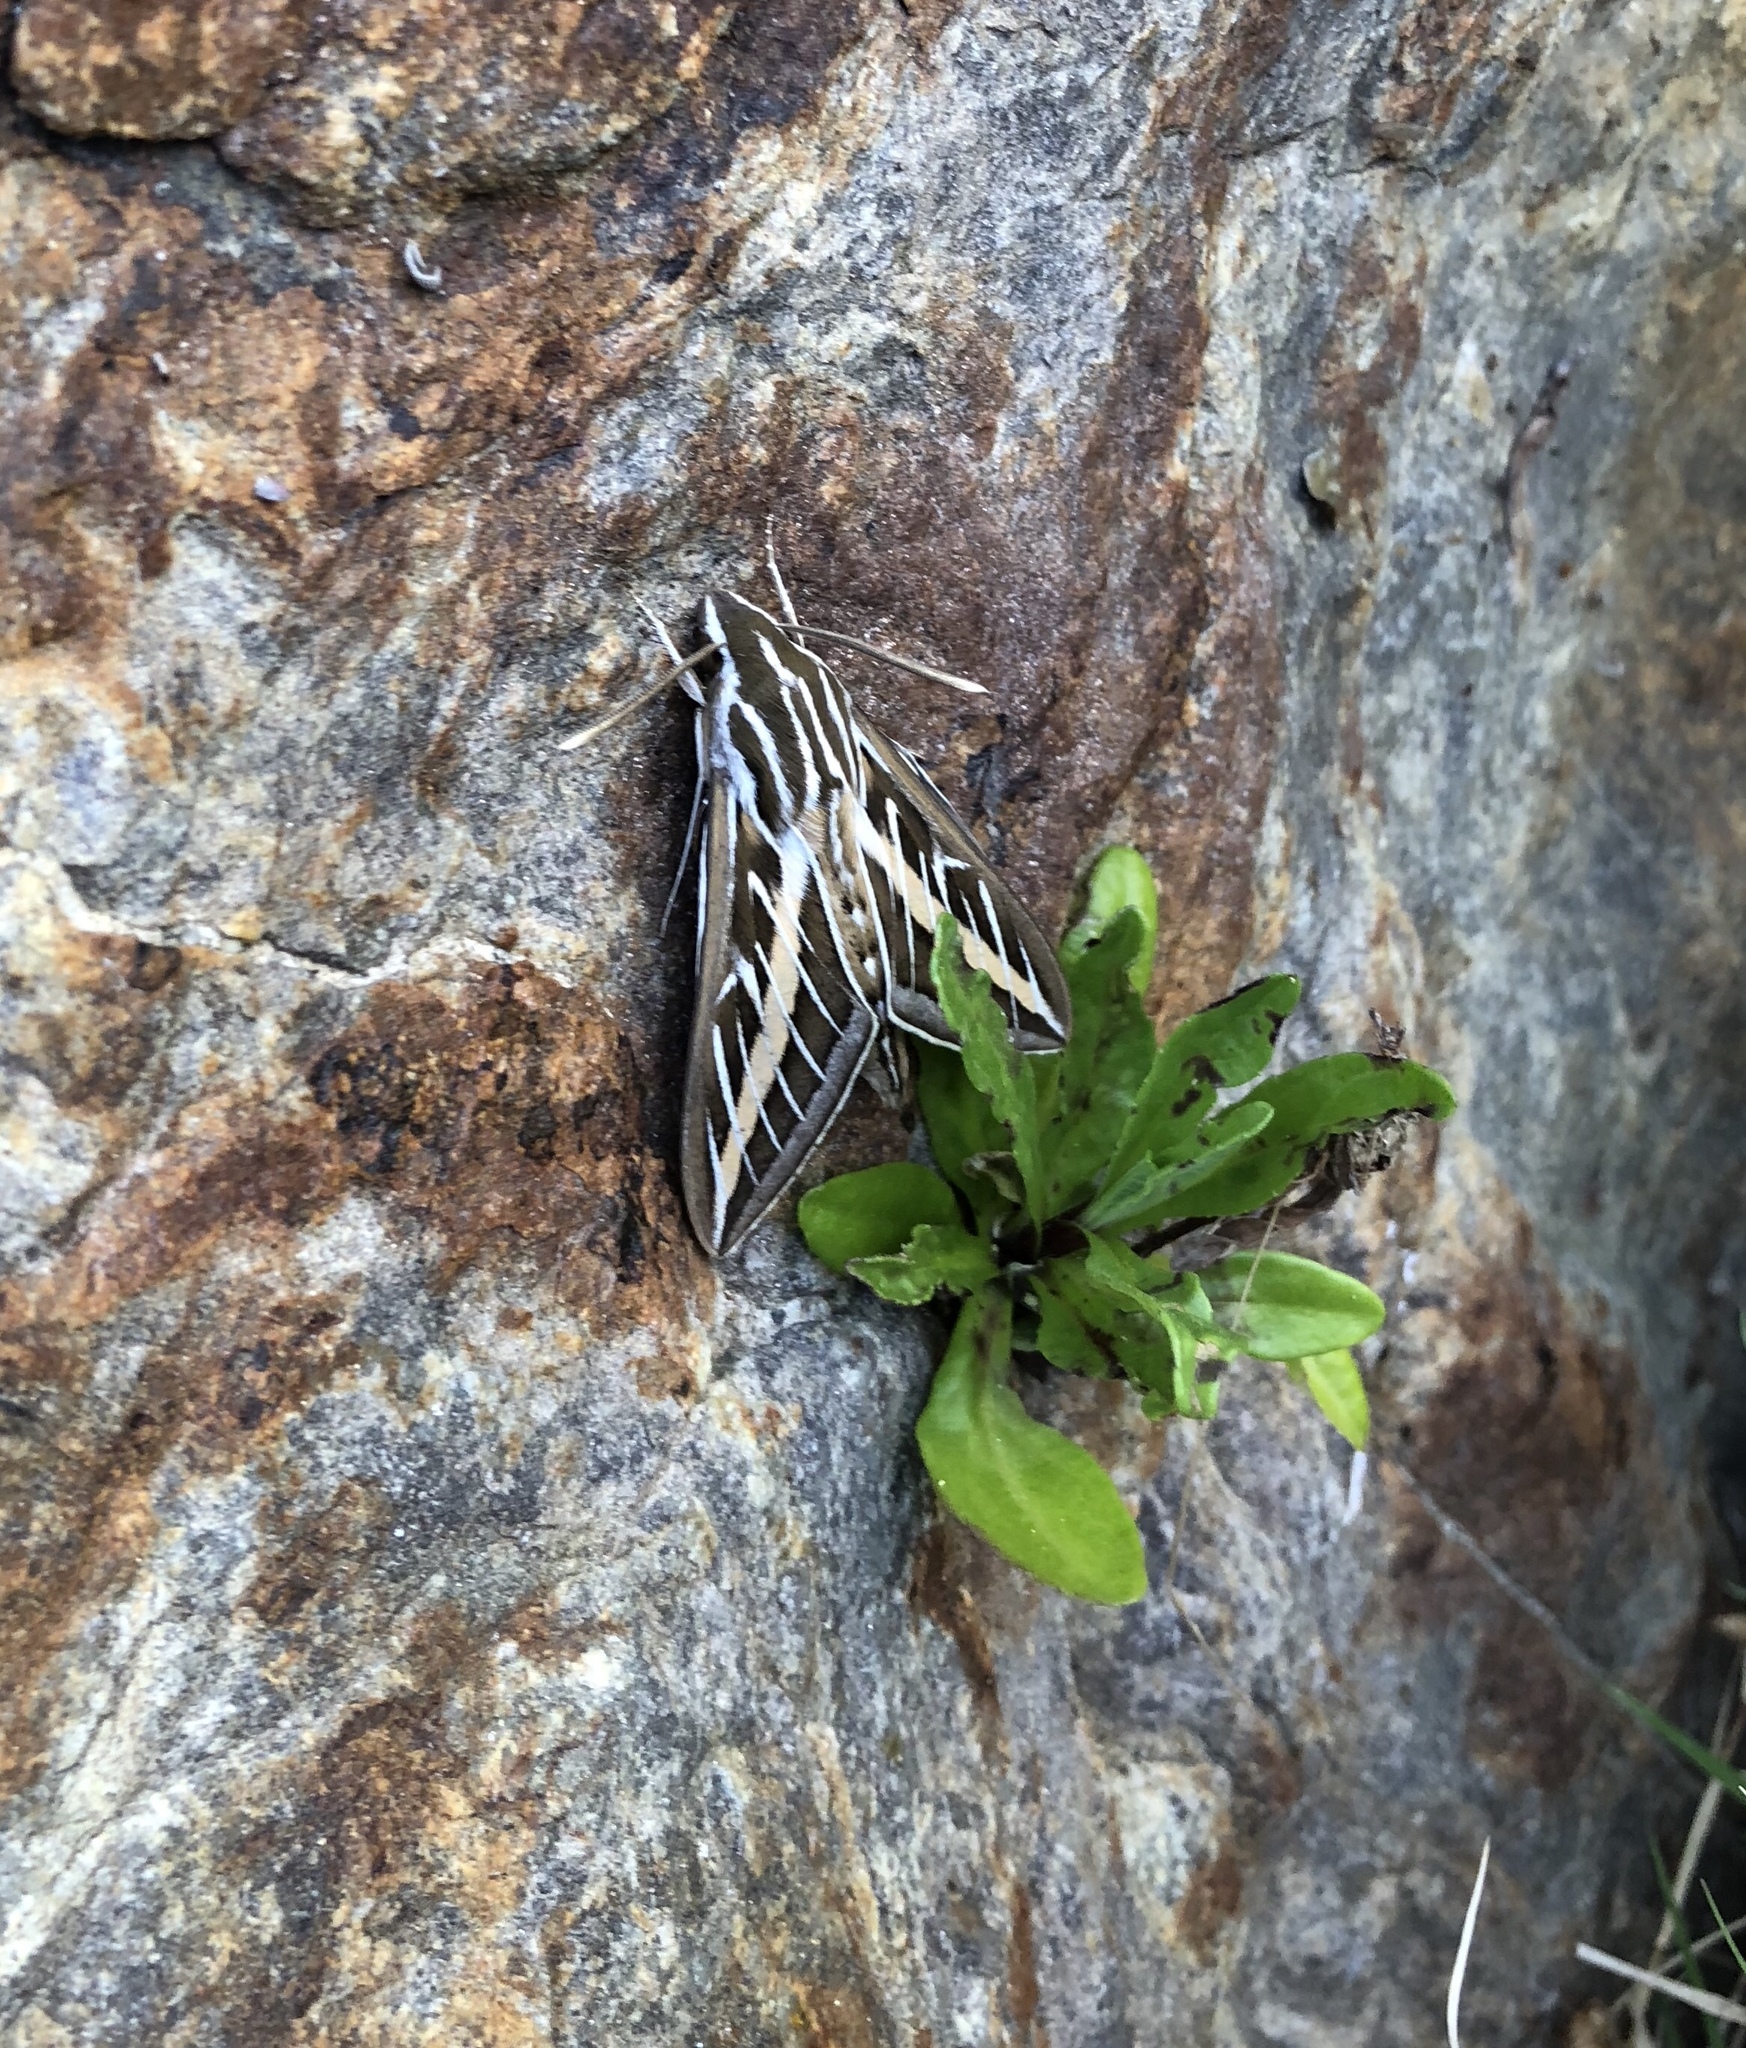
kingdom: Animalia
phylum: Arthropoda
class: Insecta
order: Lepidoptera
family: Sphingidae
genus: Hyles
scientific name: Hyles lineata
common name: White-lined sphinx
